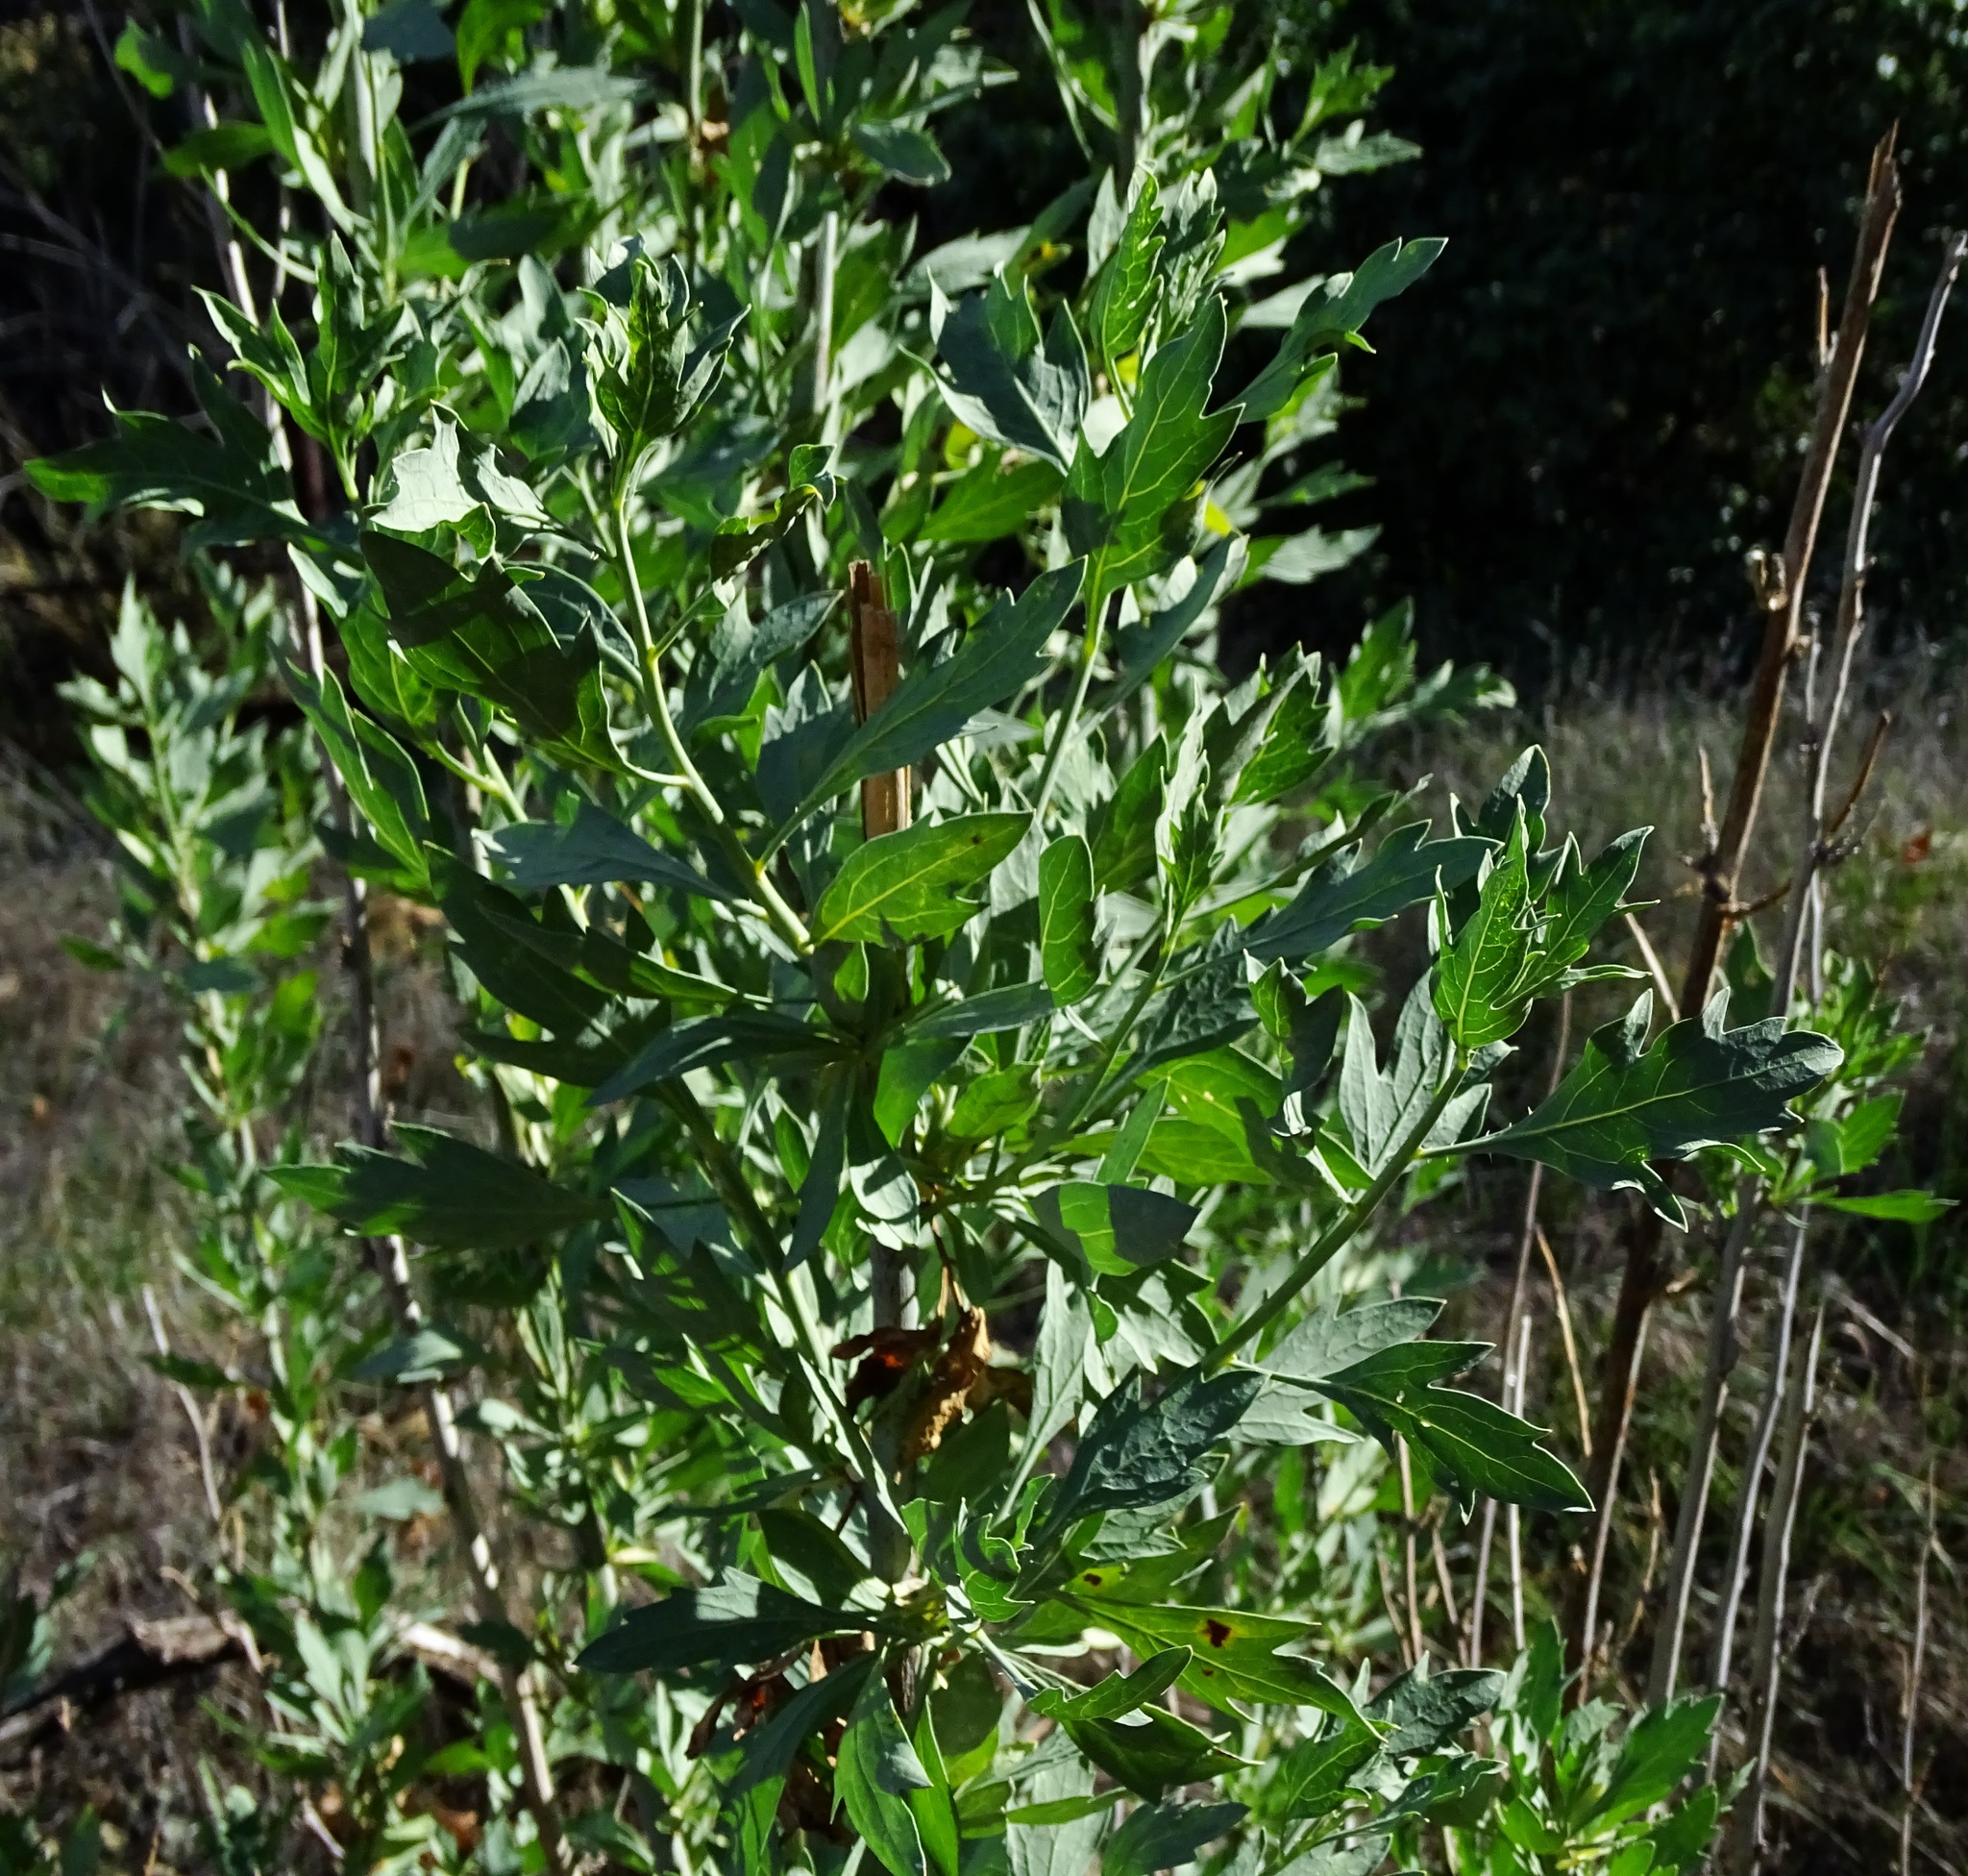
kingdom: Plantae
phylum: Tracheophyta
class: Magnoliopsida
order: Ranunculales
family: Papaveraceae
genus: Romneya
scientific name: Romneya coulteri
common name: California tree-poppy
